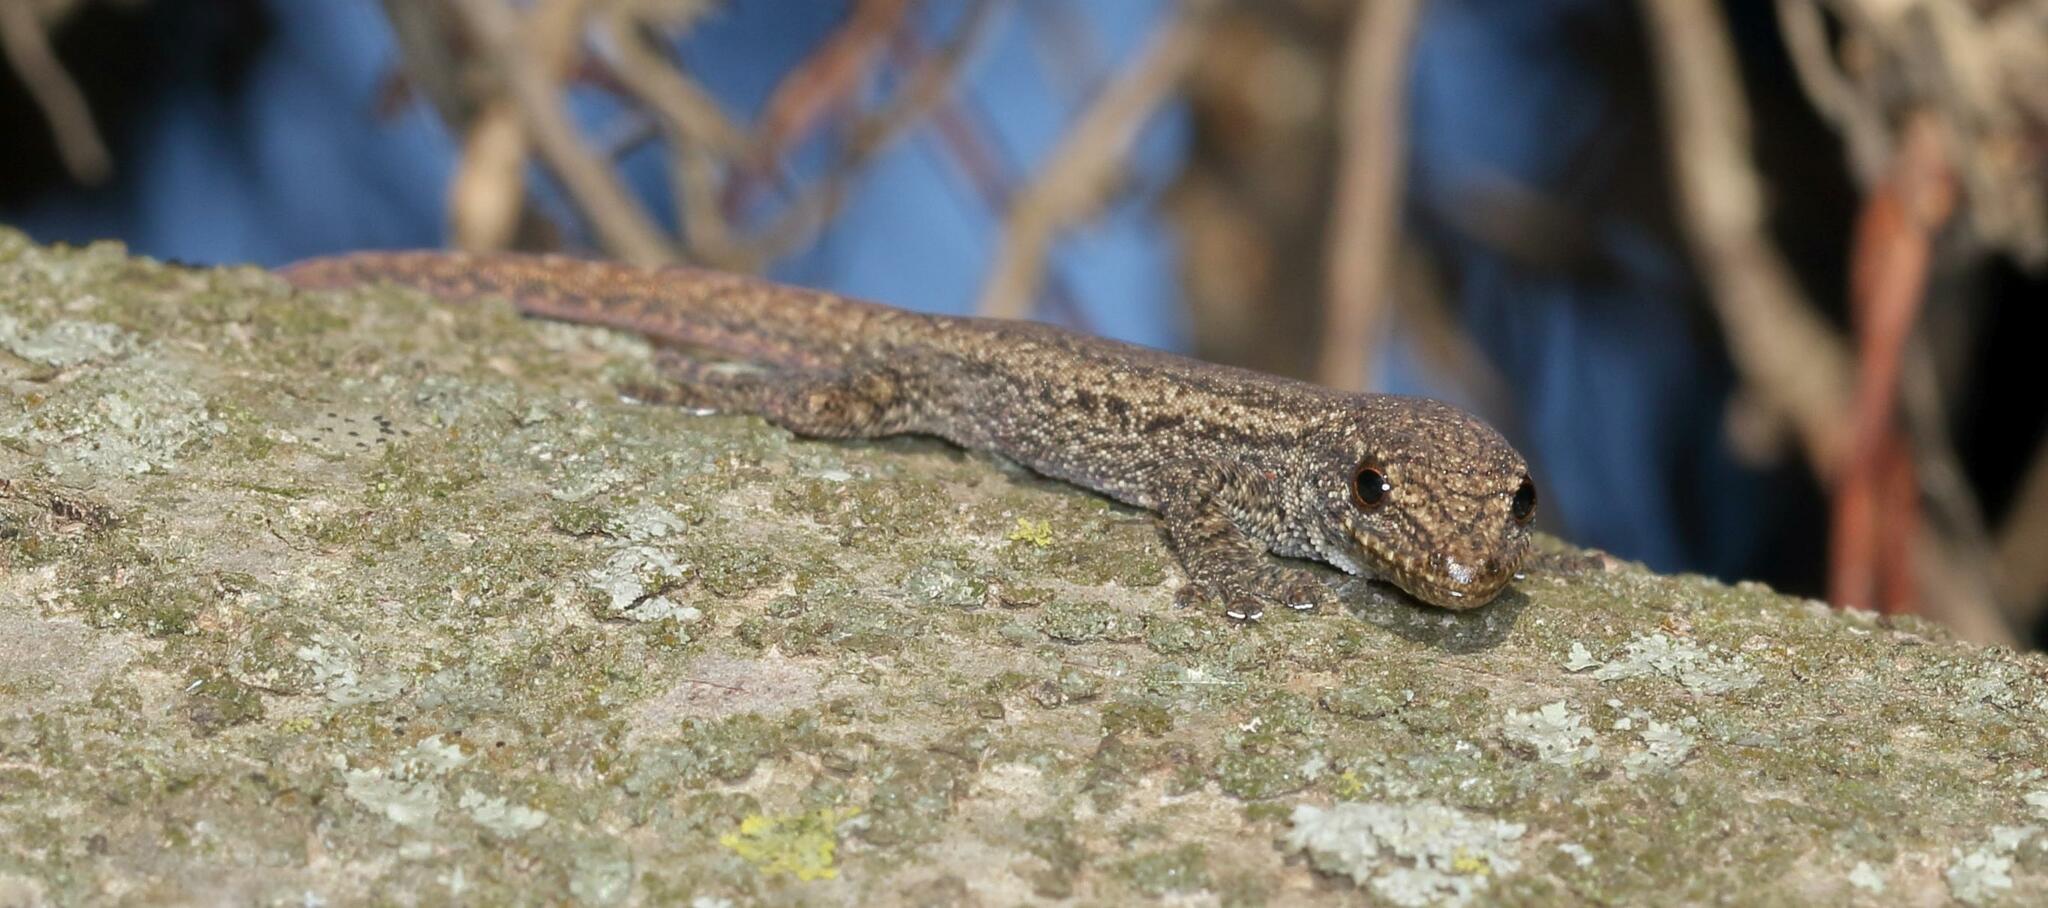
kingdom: Animalia
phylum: Chordata
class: Squamata
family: Gekkonidae
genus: Lygodactylus
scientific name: Lygodactylus capensis
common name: Cape dwarf gecko
